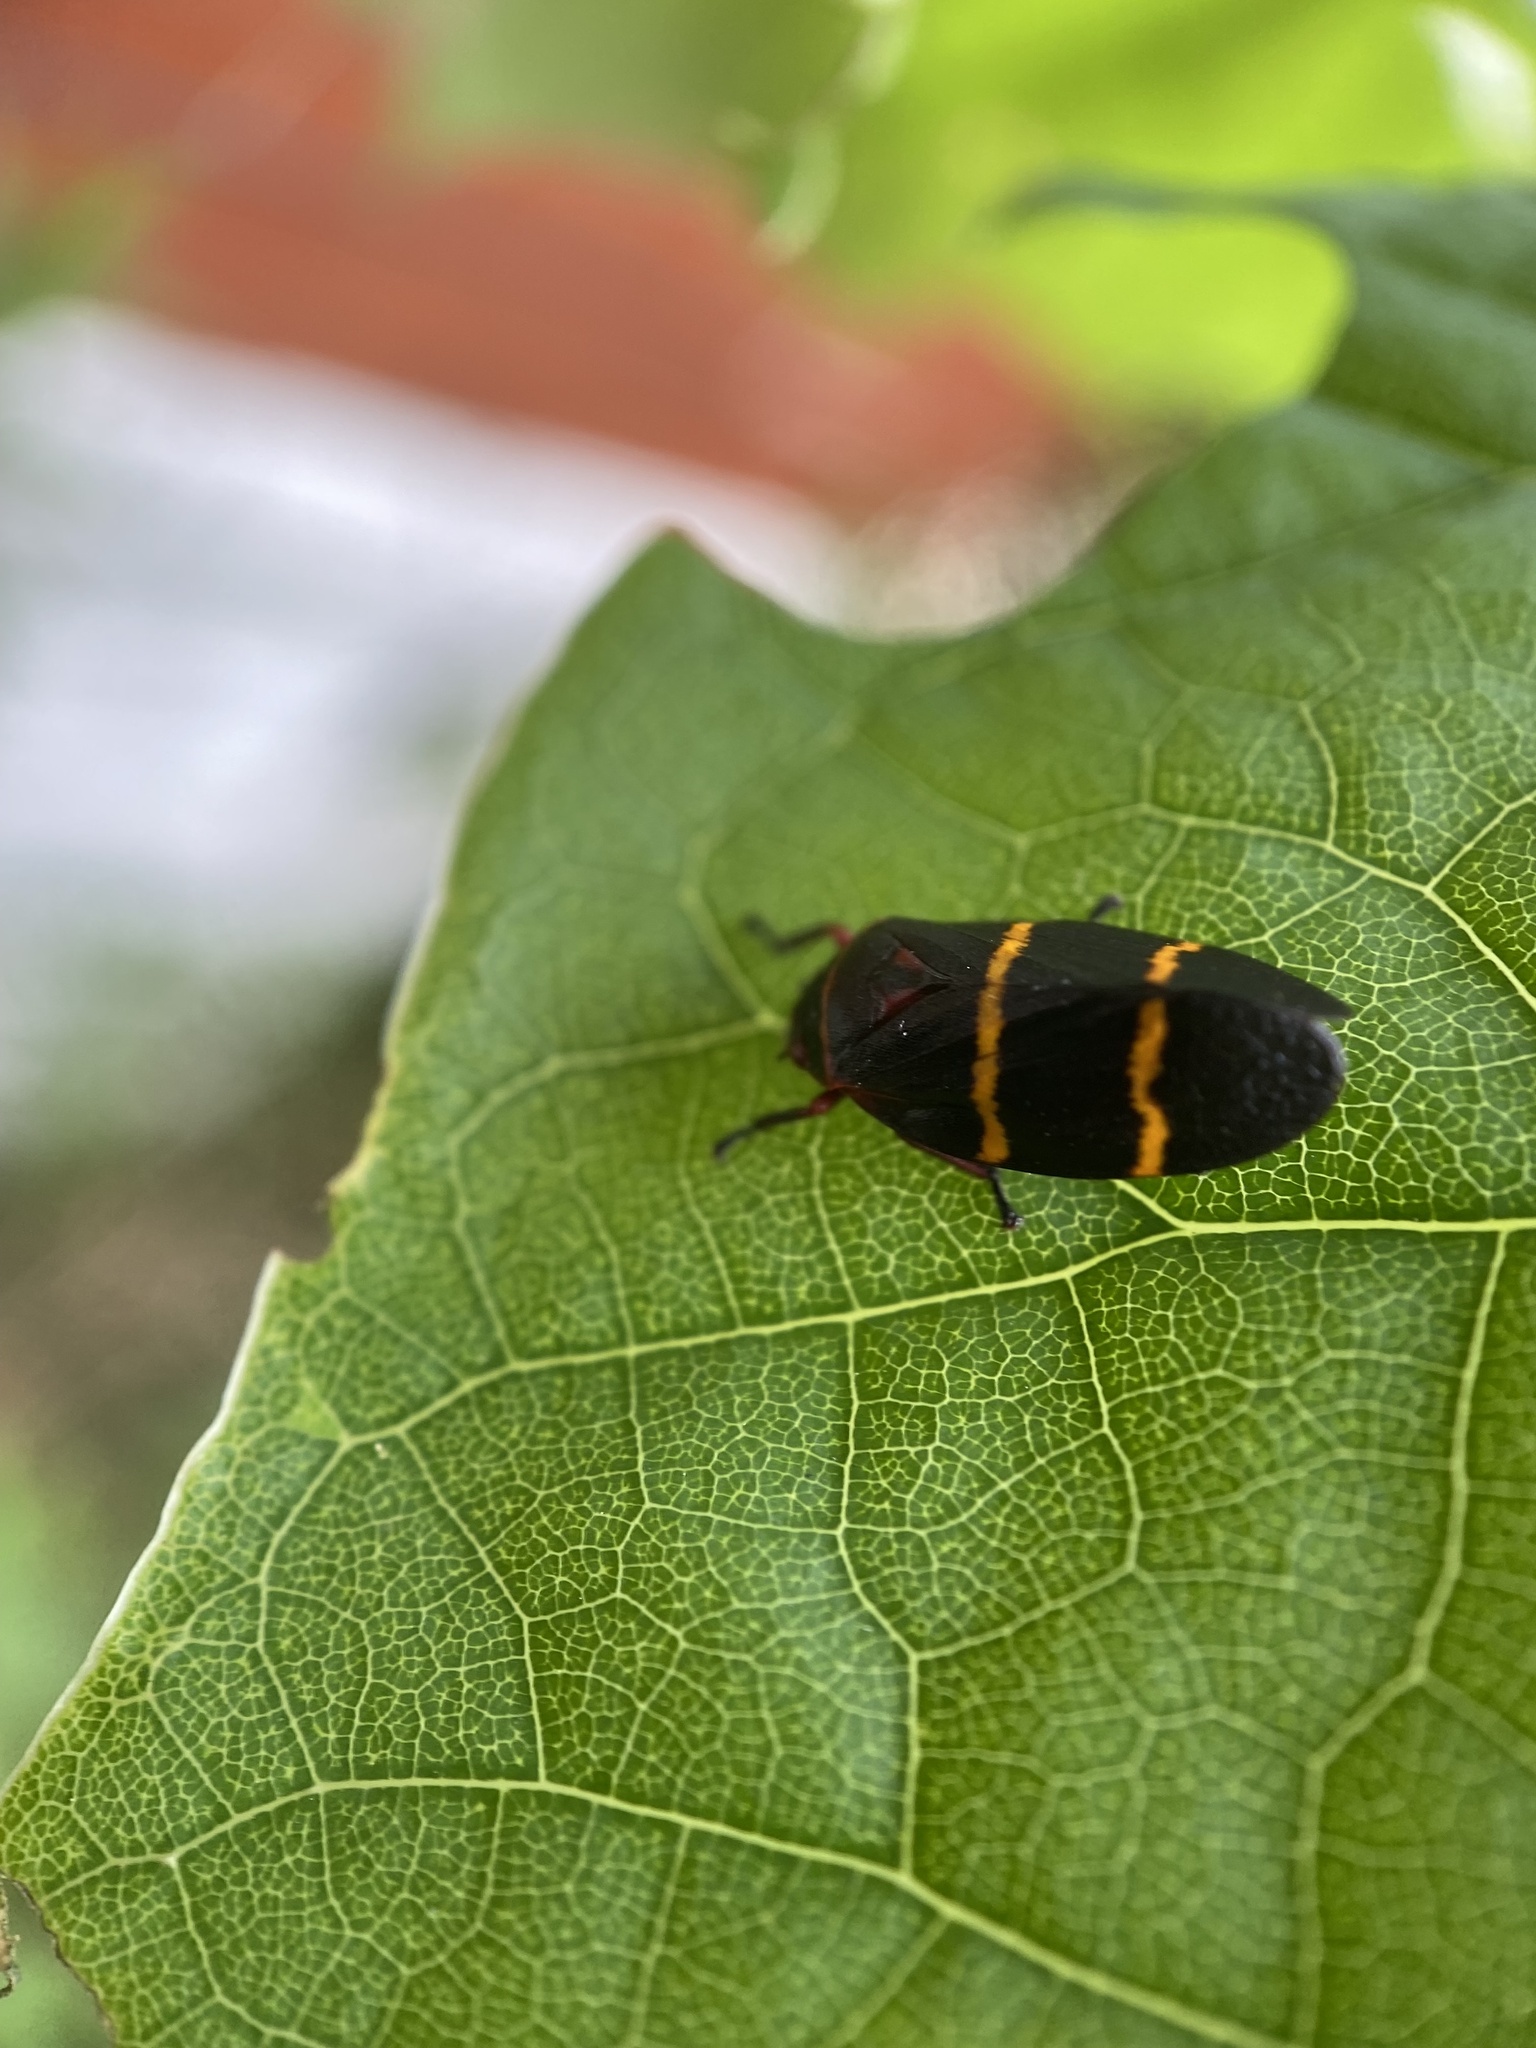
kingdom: Animalia
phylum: Arthropoda
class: Insecta
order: Hemiptera
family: Cercopidae
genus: Prosapia
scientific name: Prosapia bicincta
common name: Twolined spittlebug
